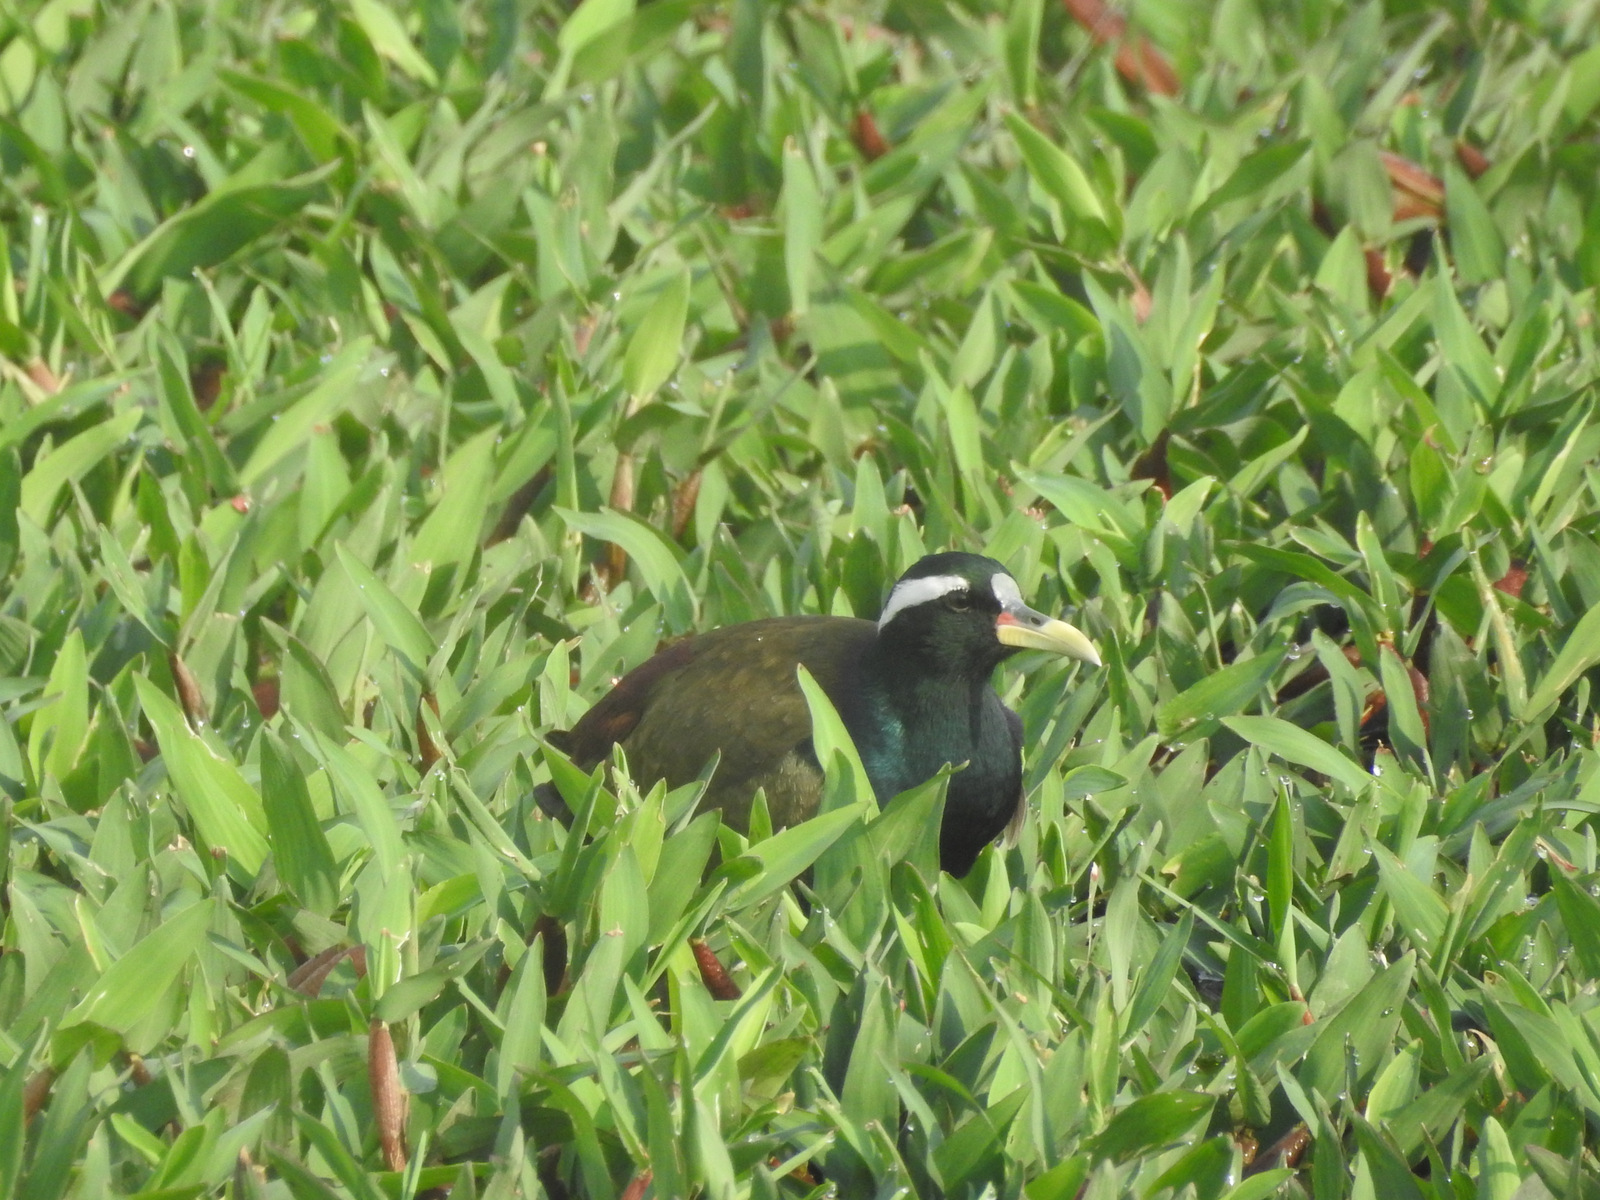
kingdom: Animalia
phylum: Chordata
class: Aves
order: Charadriiformes
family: Jacanidae
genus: Metopidius
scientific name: Metopidius indicus
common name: Bronze-winged jacana
